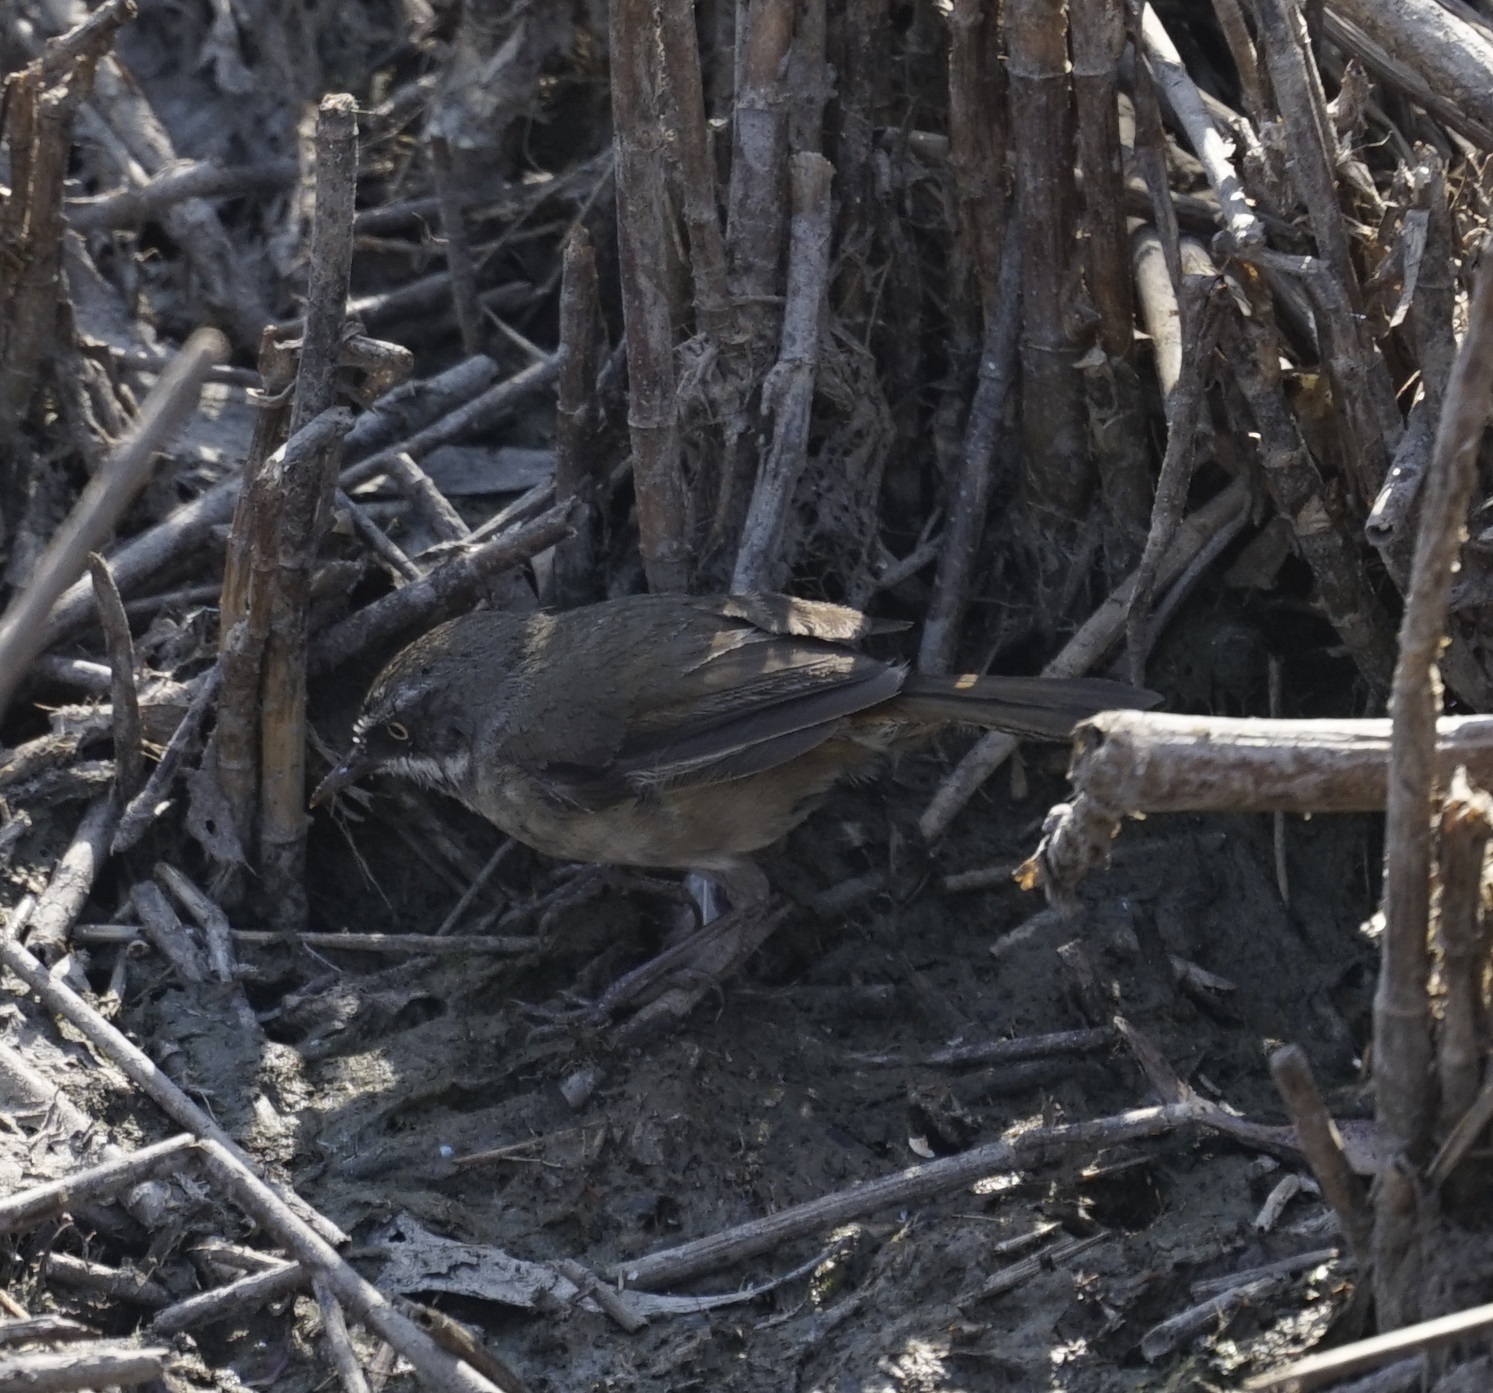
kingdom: Animalia
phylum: Chordata
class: Aves
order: Passeriformes
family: Acanthizidae
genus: Sericornis
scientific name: Sericornis frontalis
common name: White-browed scrubwren
